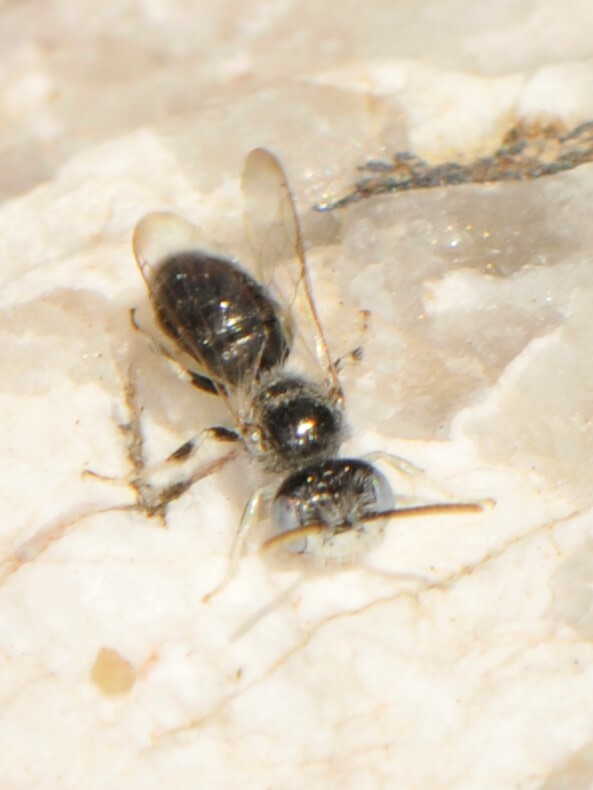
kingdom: Animalia
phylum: Arthropoda
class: Insecta
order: Hymenoptera
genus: Hypomacrotera
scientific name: Hypomacrotera
